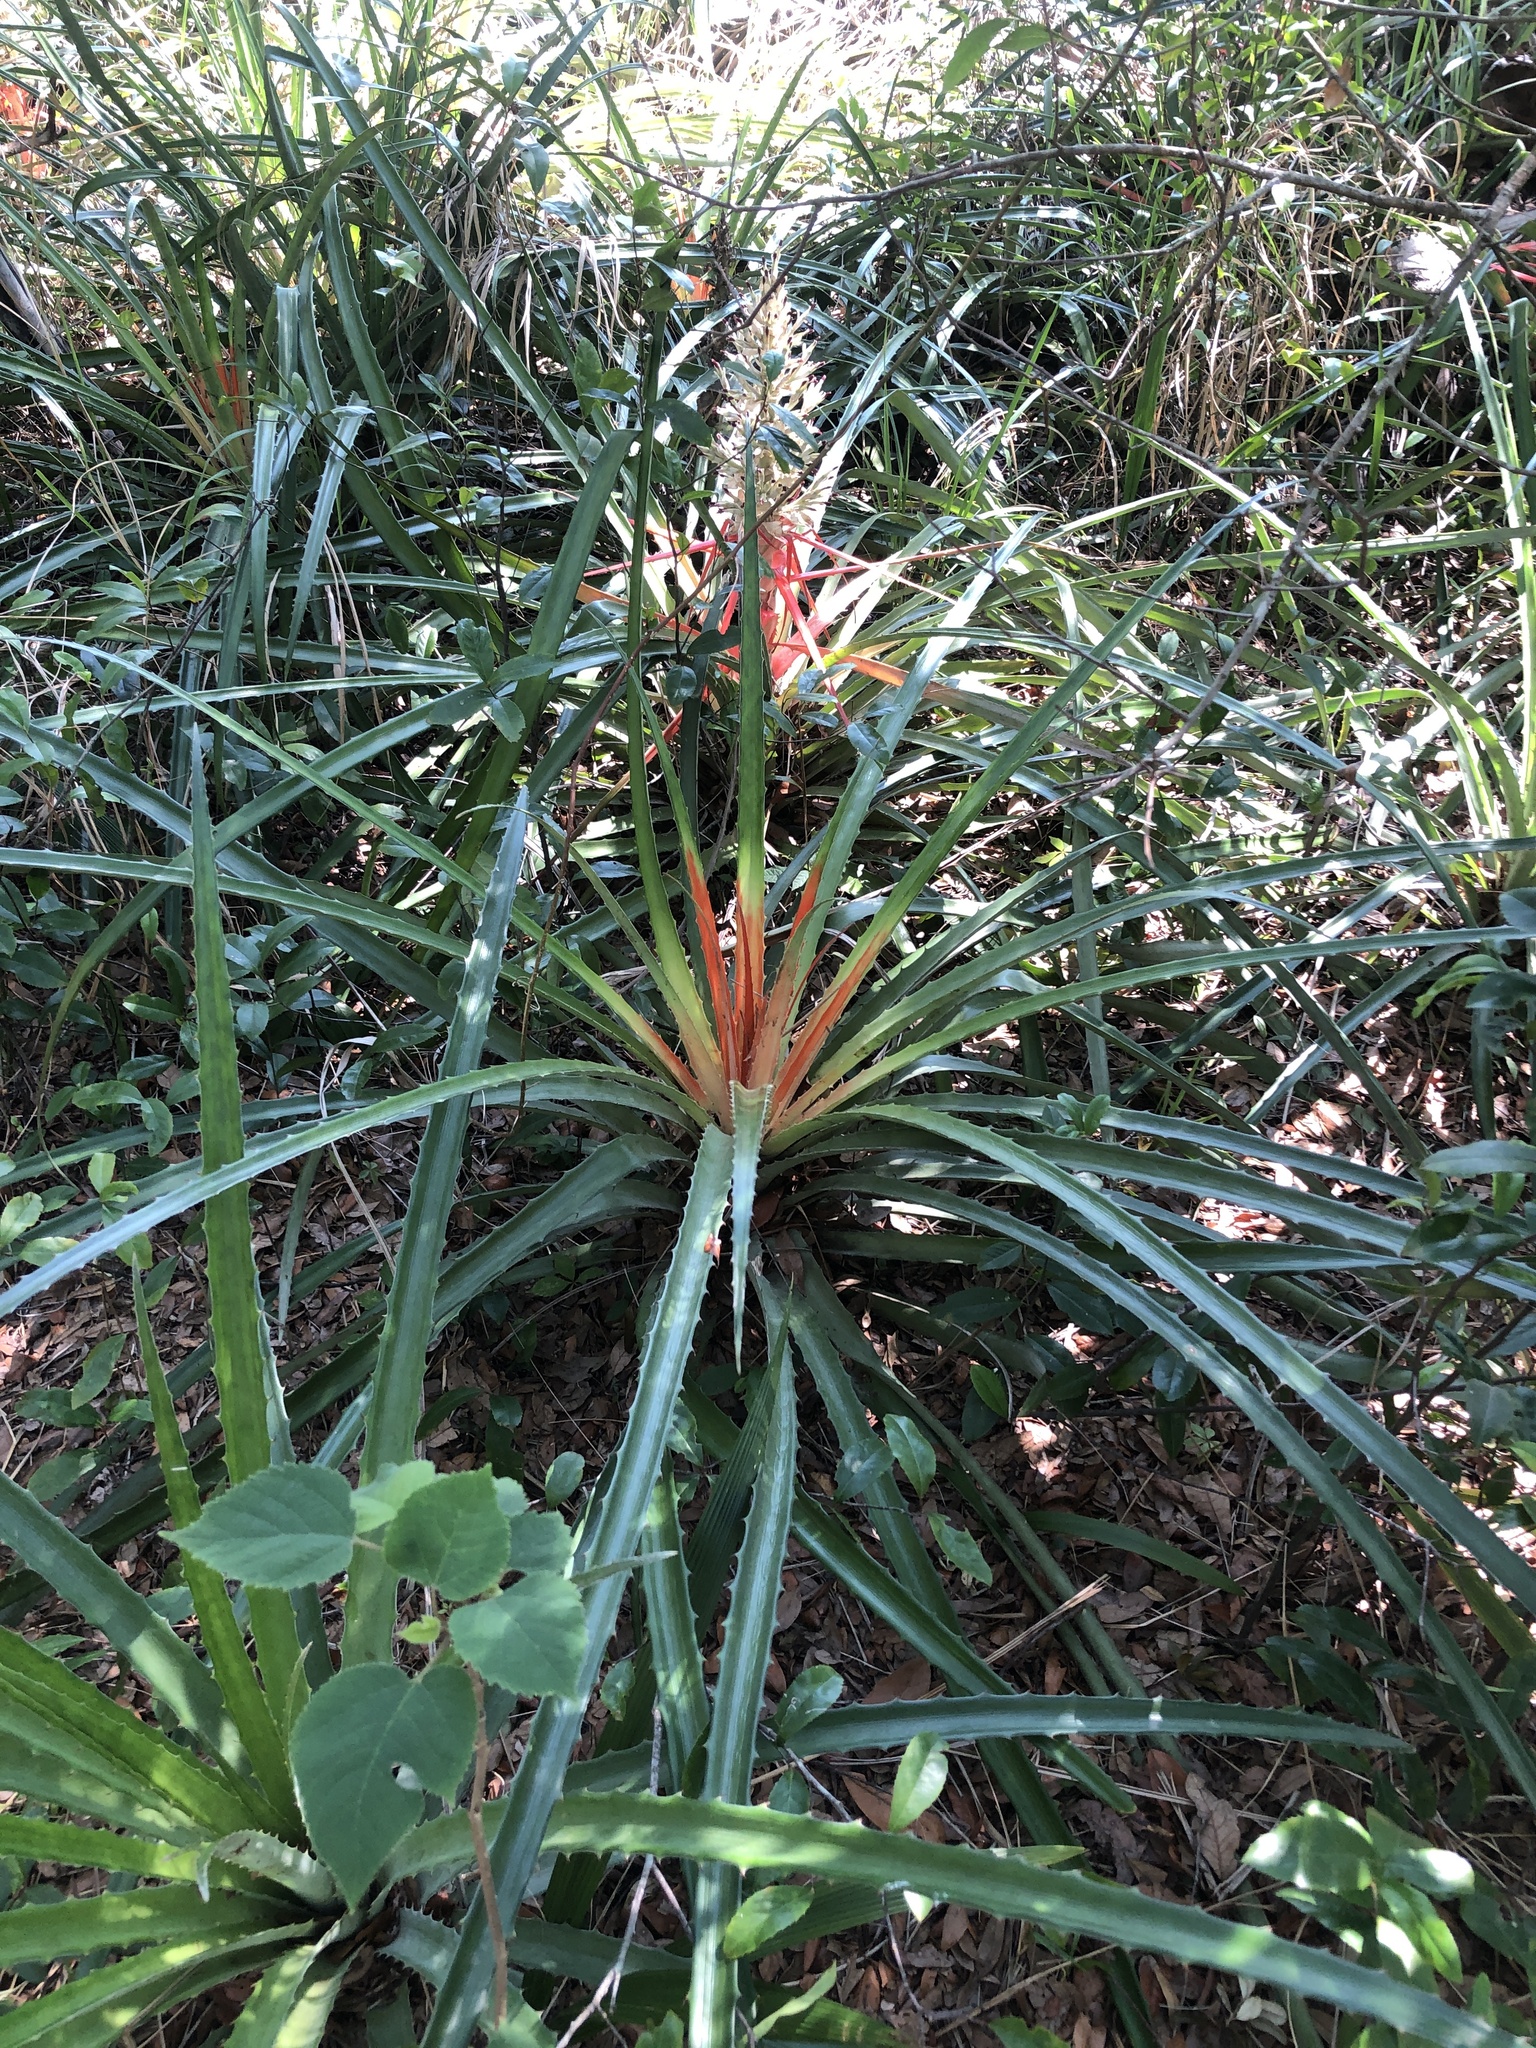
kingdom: Plantae
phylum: Tracheophyta
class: Liliopsida
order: Poales
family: Bromeliaceae
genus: Bromelia
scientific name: Bromelia pinguin
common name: Pinguin
